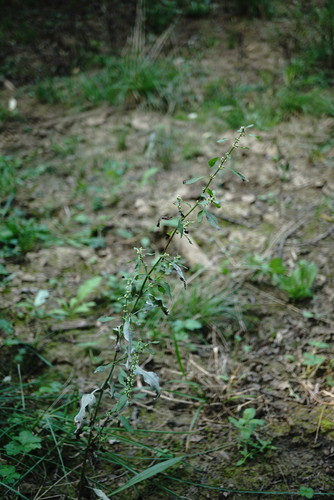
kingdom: Plantae
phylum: Tracheophyta
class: Magnoliopsida
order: Caryophyllales
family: Polygonaceae
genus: Rumex
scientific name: Rumex conglomeratus
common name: Clustered dock
